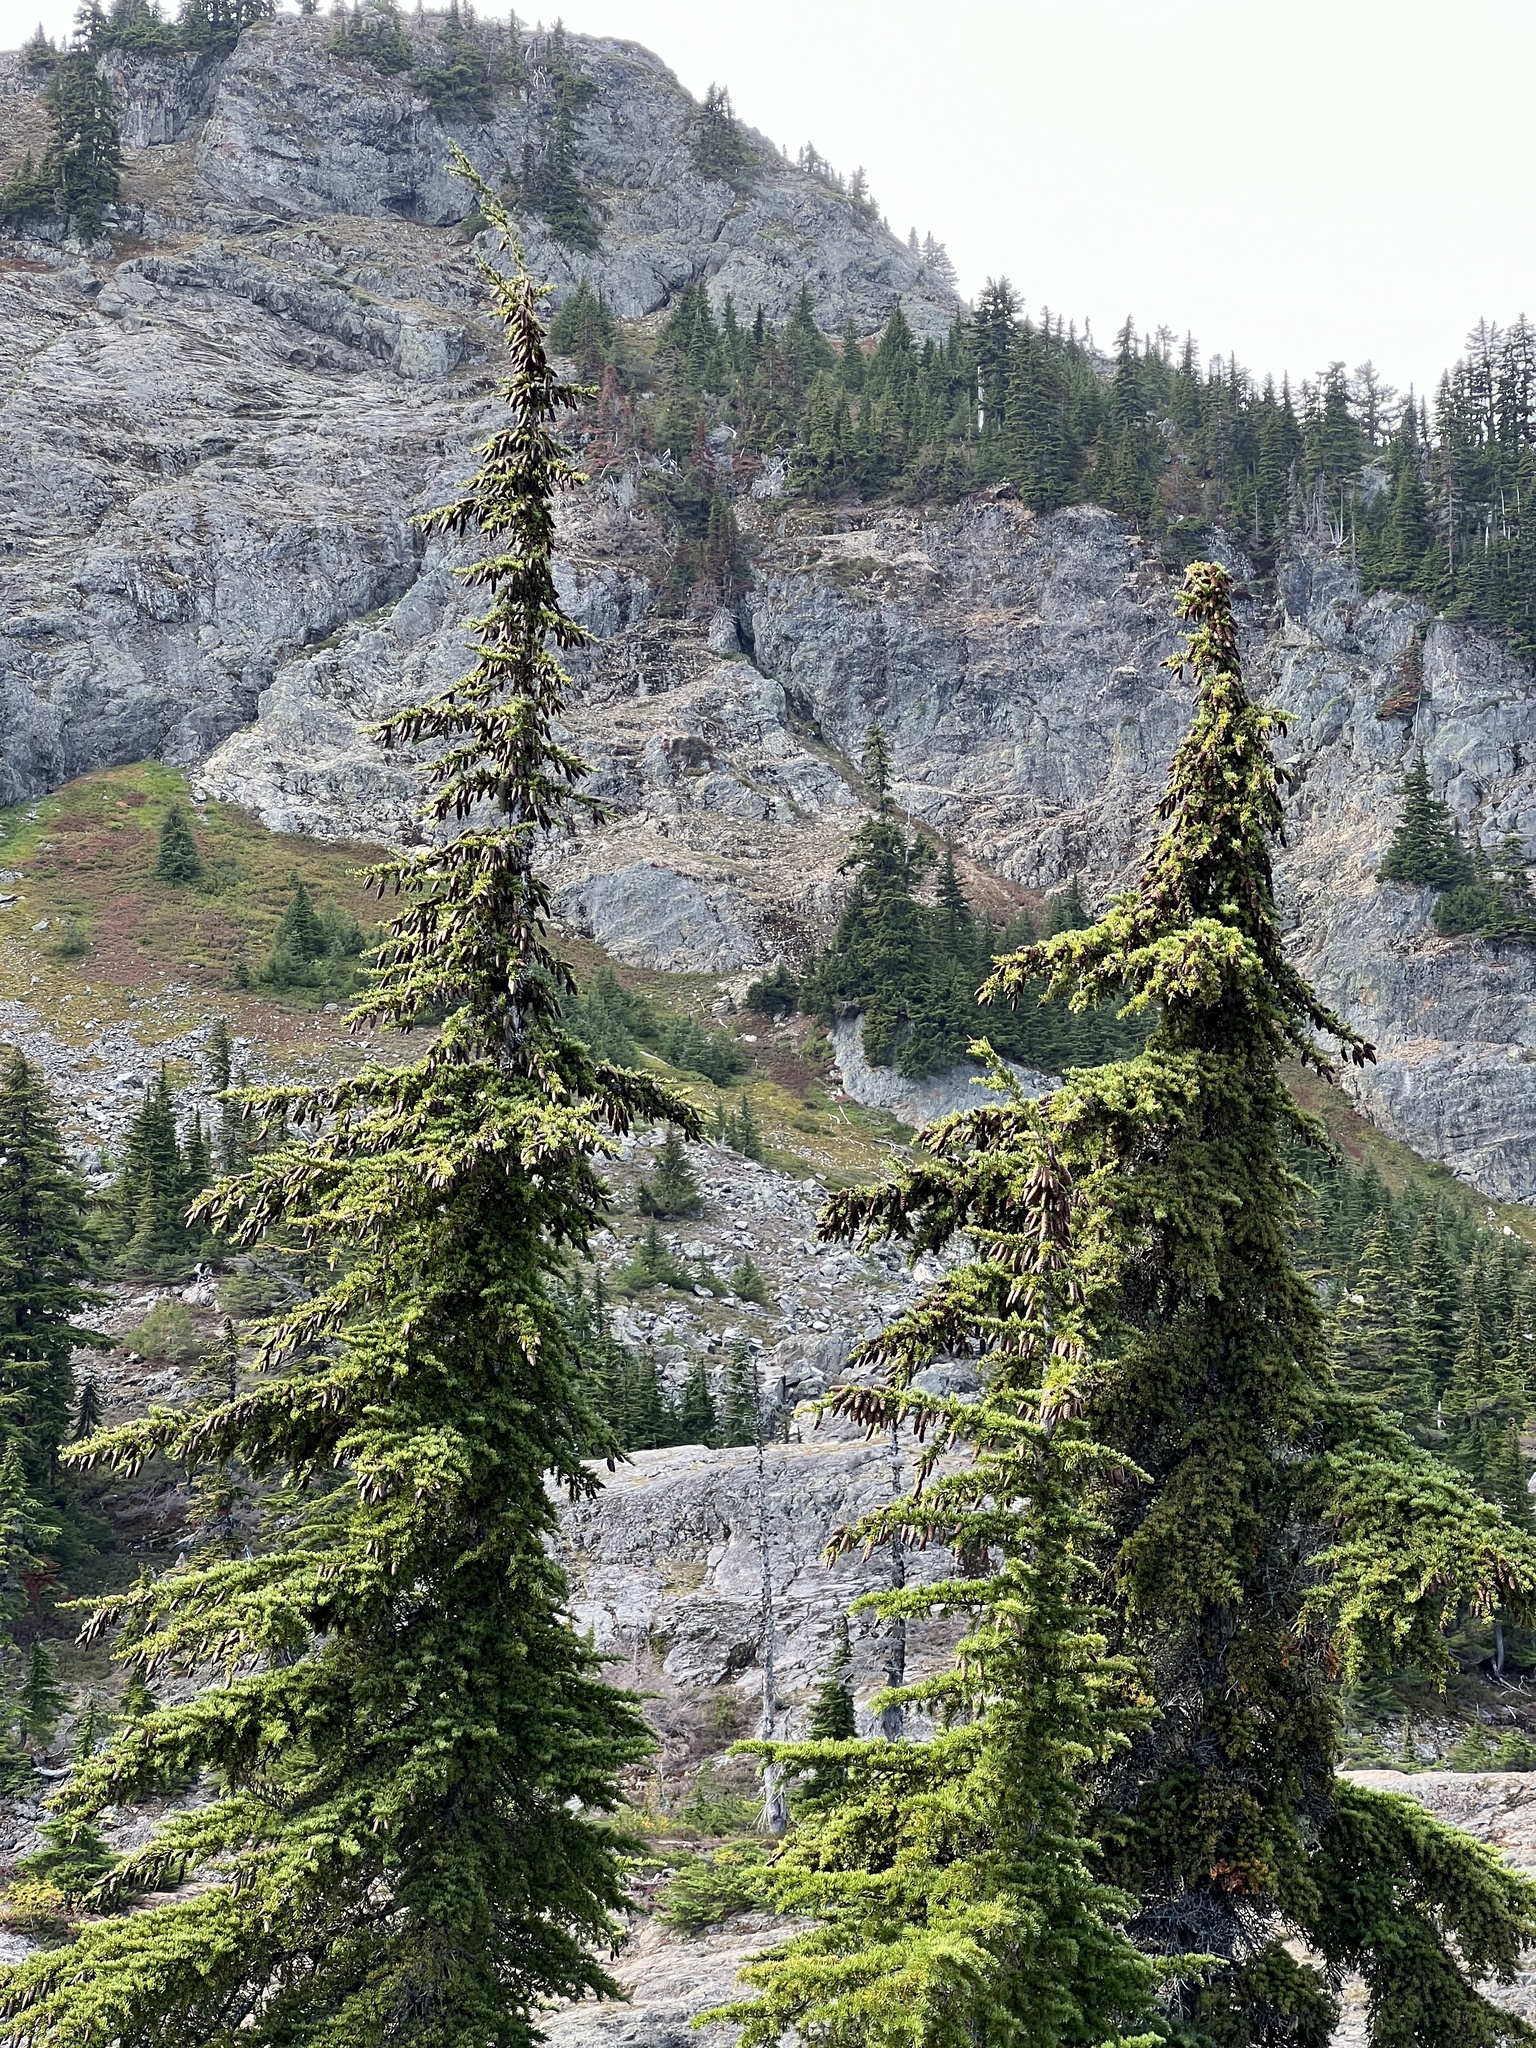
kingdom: Plantae
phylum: Tracheophyta
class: Pinopsida
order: Pinales
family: Pinaceae
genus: Tsuga
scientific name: Tsuga mertensiana
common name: Mountain hemlock
